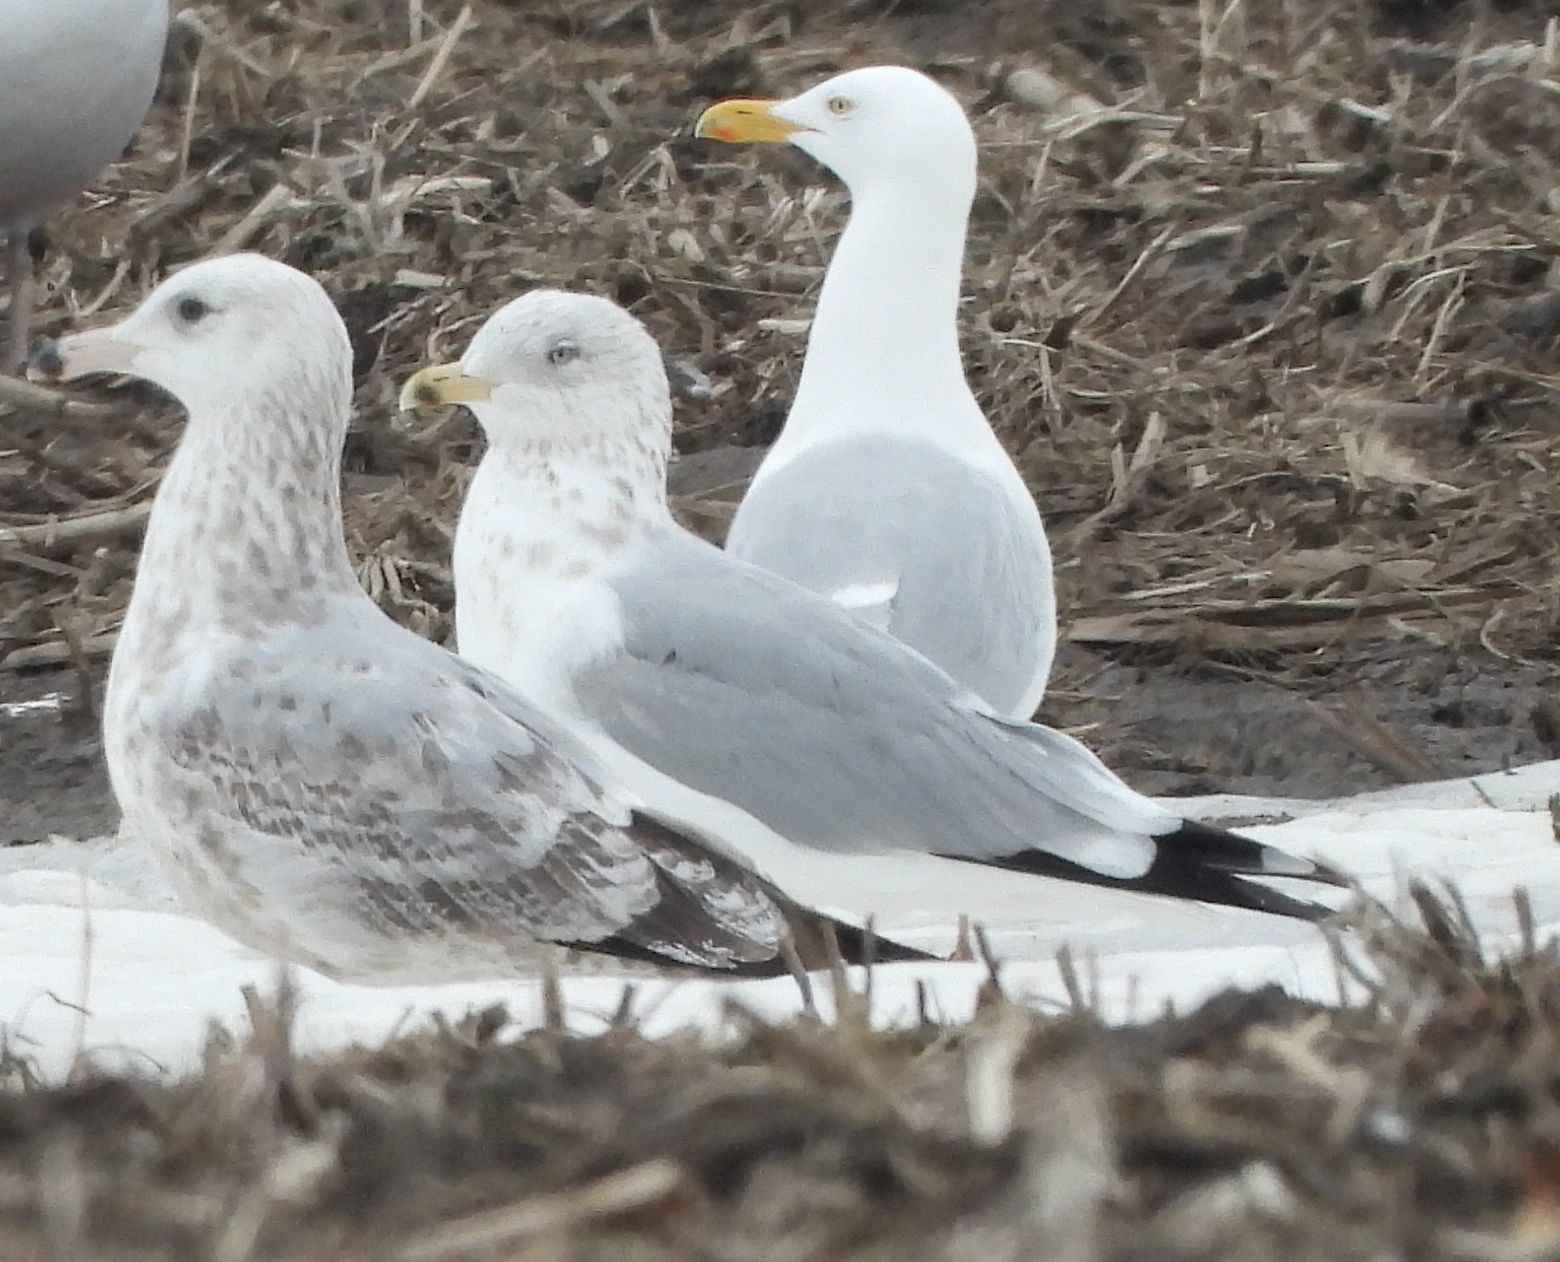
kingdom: Animalia
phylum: Chordata
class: Aves
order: Charadriiformes
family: Laridae
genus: Larus
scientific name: Larus argentatus
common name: Herring gull
